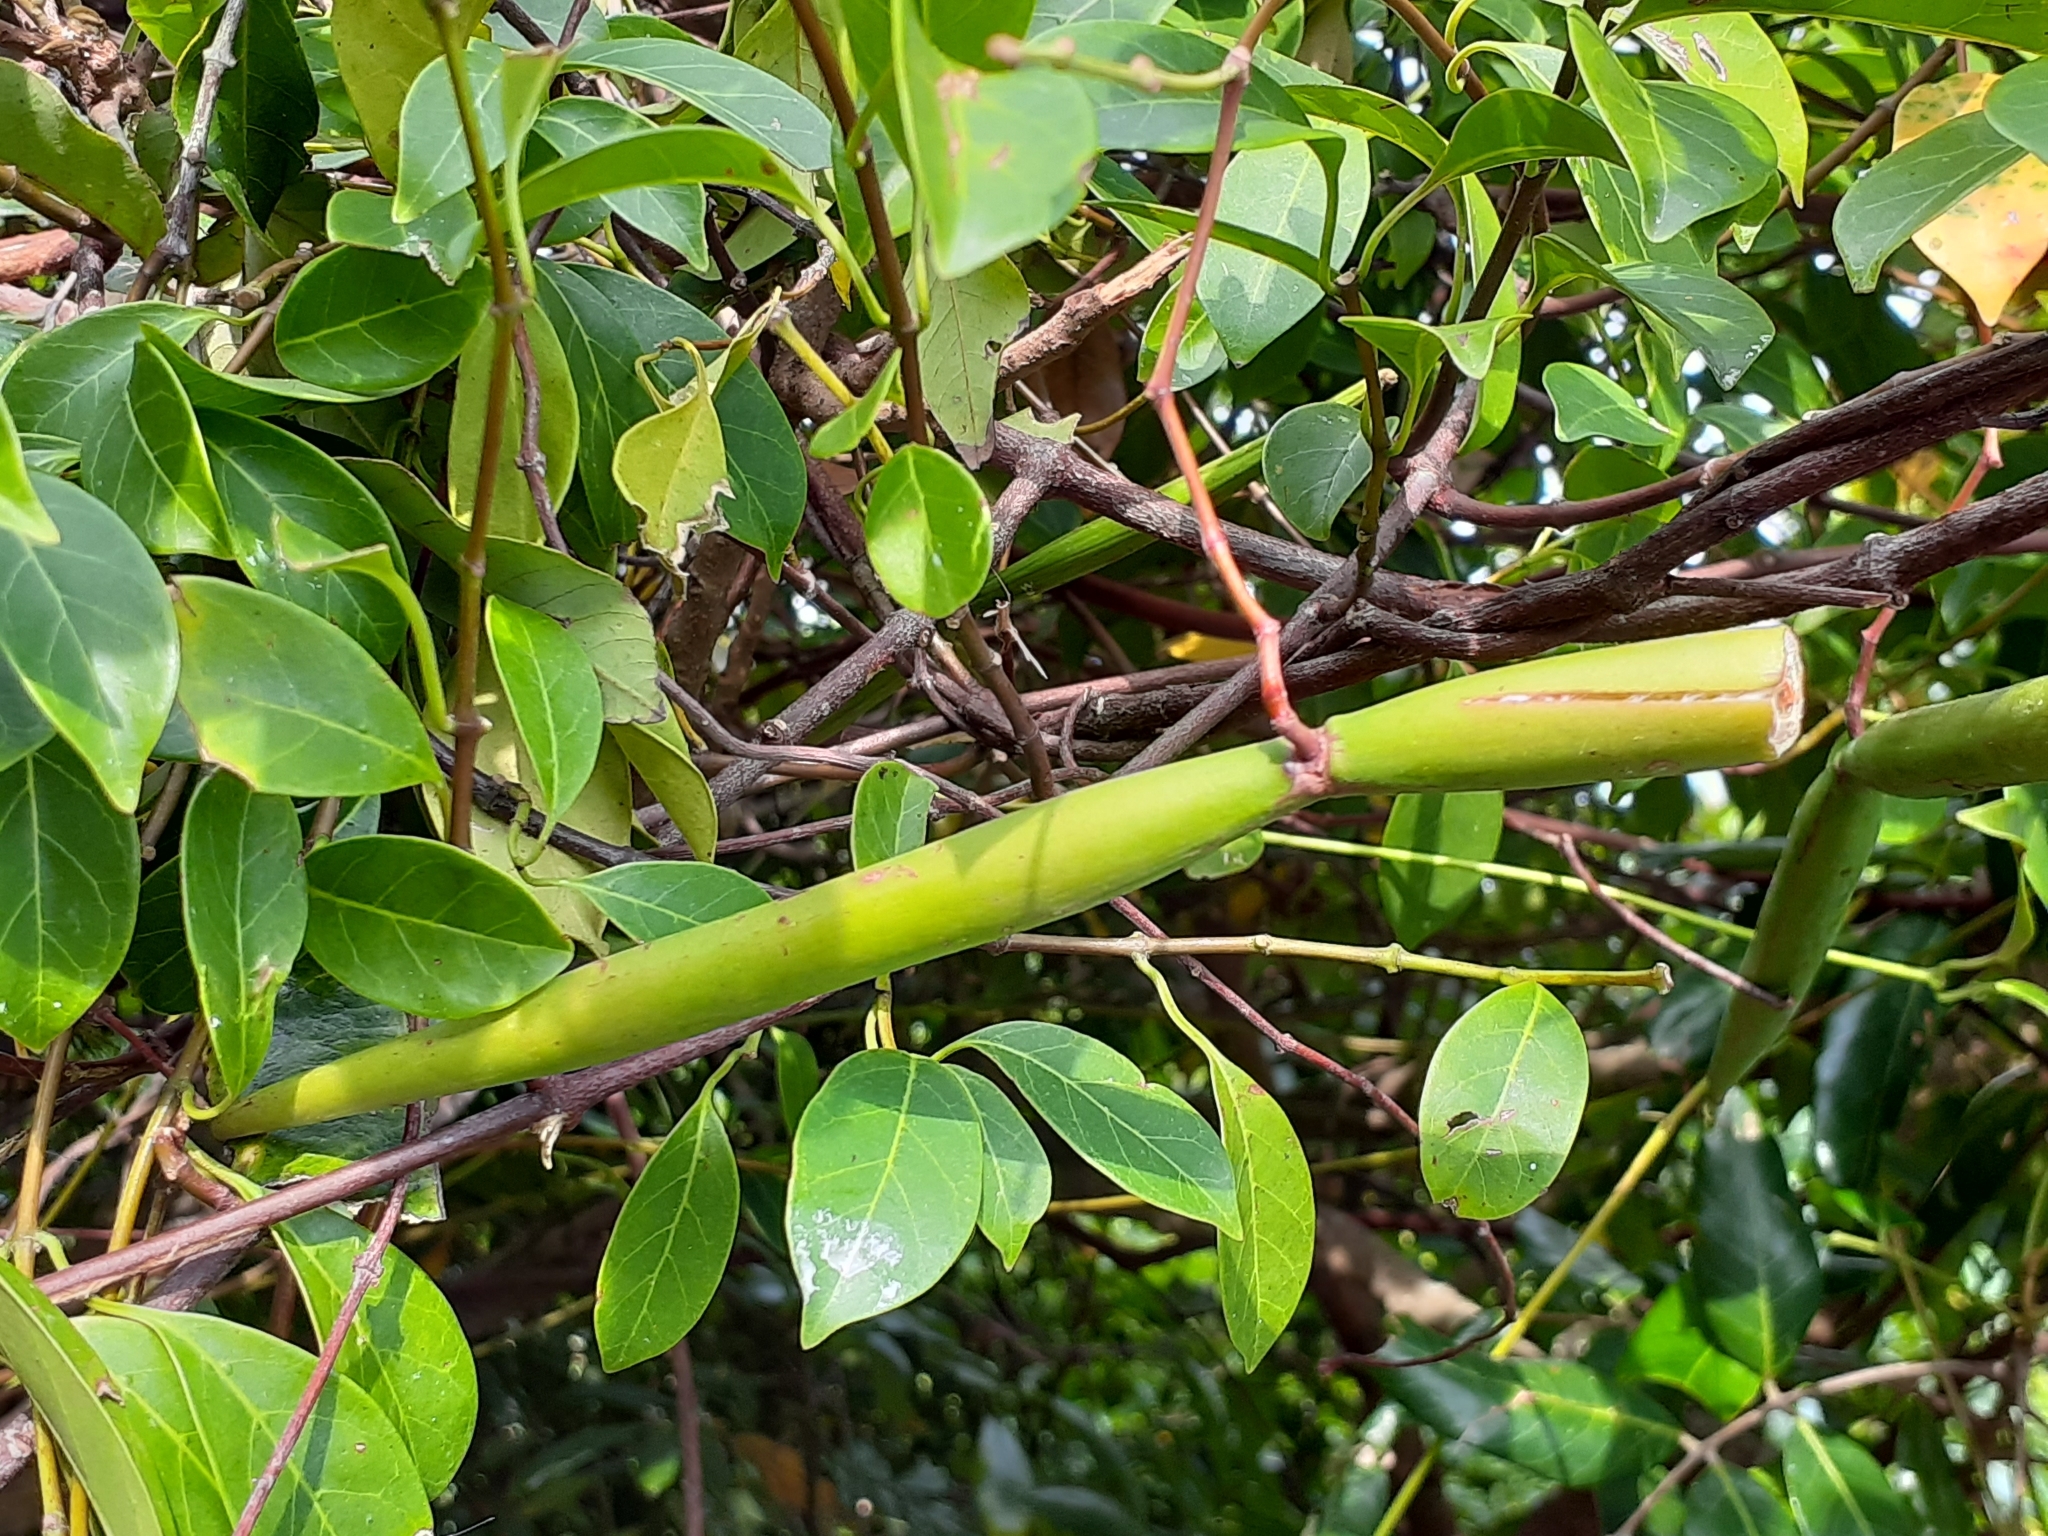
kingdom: Plantae
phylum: Tracheophyta
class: Magnoliopsida
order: Gentianales
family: Apocynaceae
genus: Urceola
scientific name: Urceola rosea
